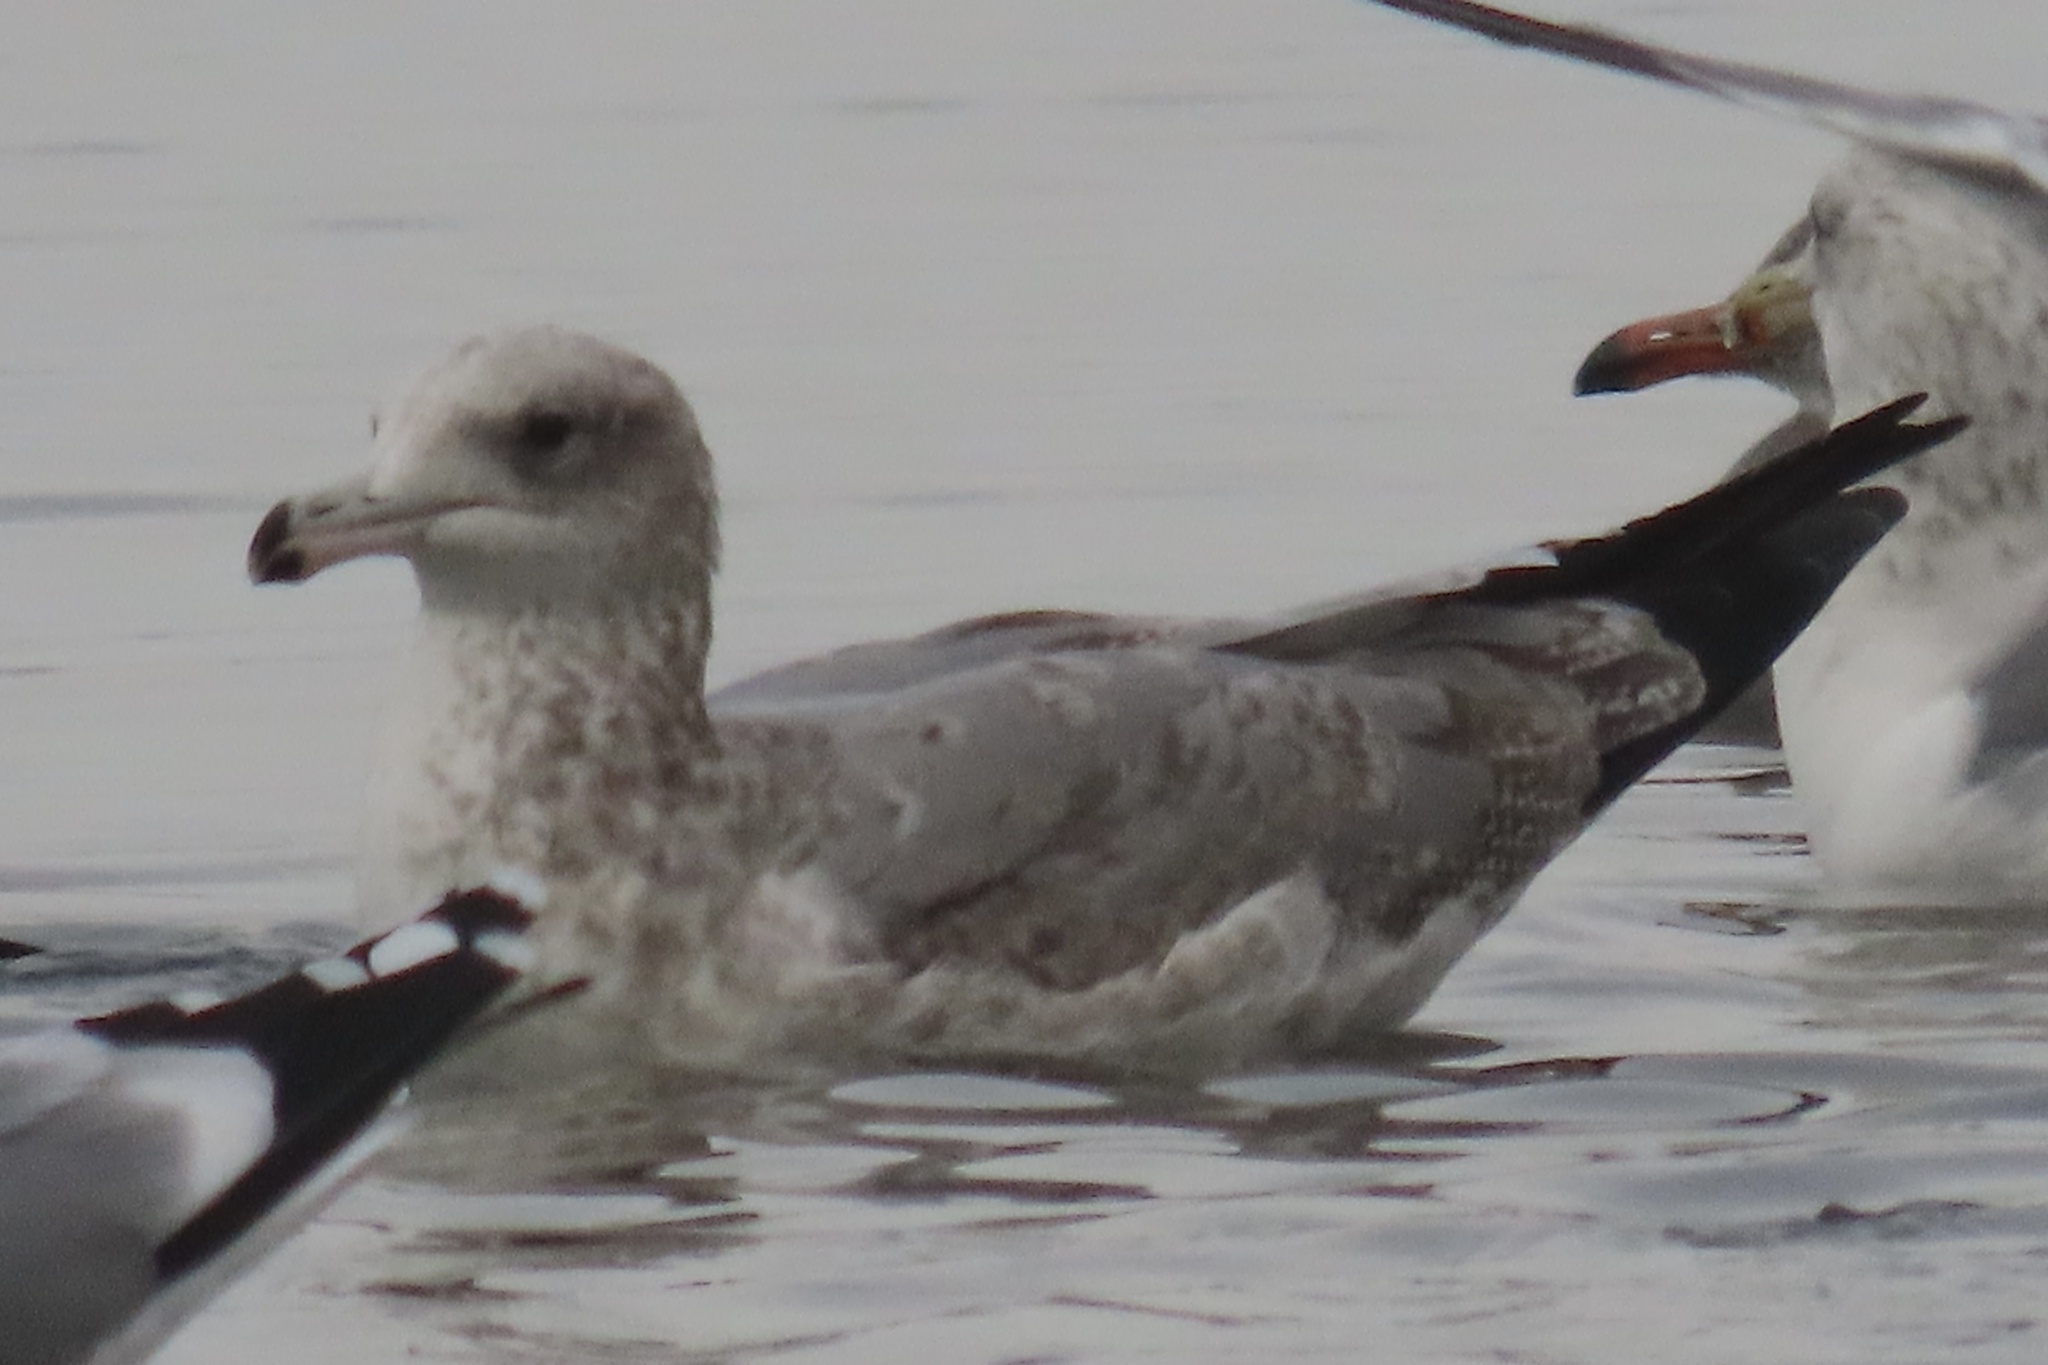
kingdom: Animalia
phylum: Chordata
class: Aves
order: Charadriiformes
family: Laridae
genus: Larus
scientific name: Larus californicus
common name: California gull
